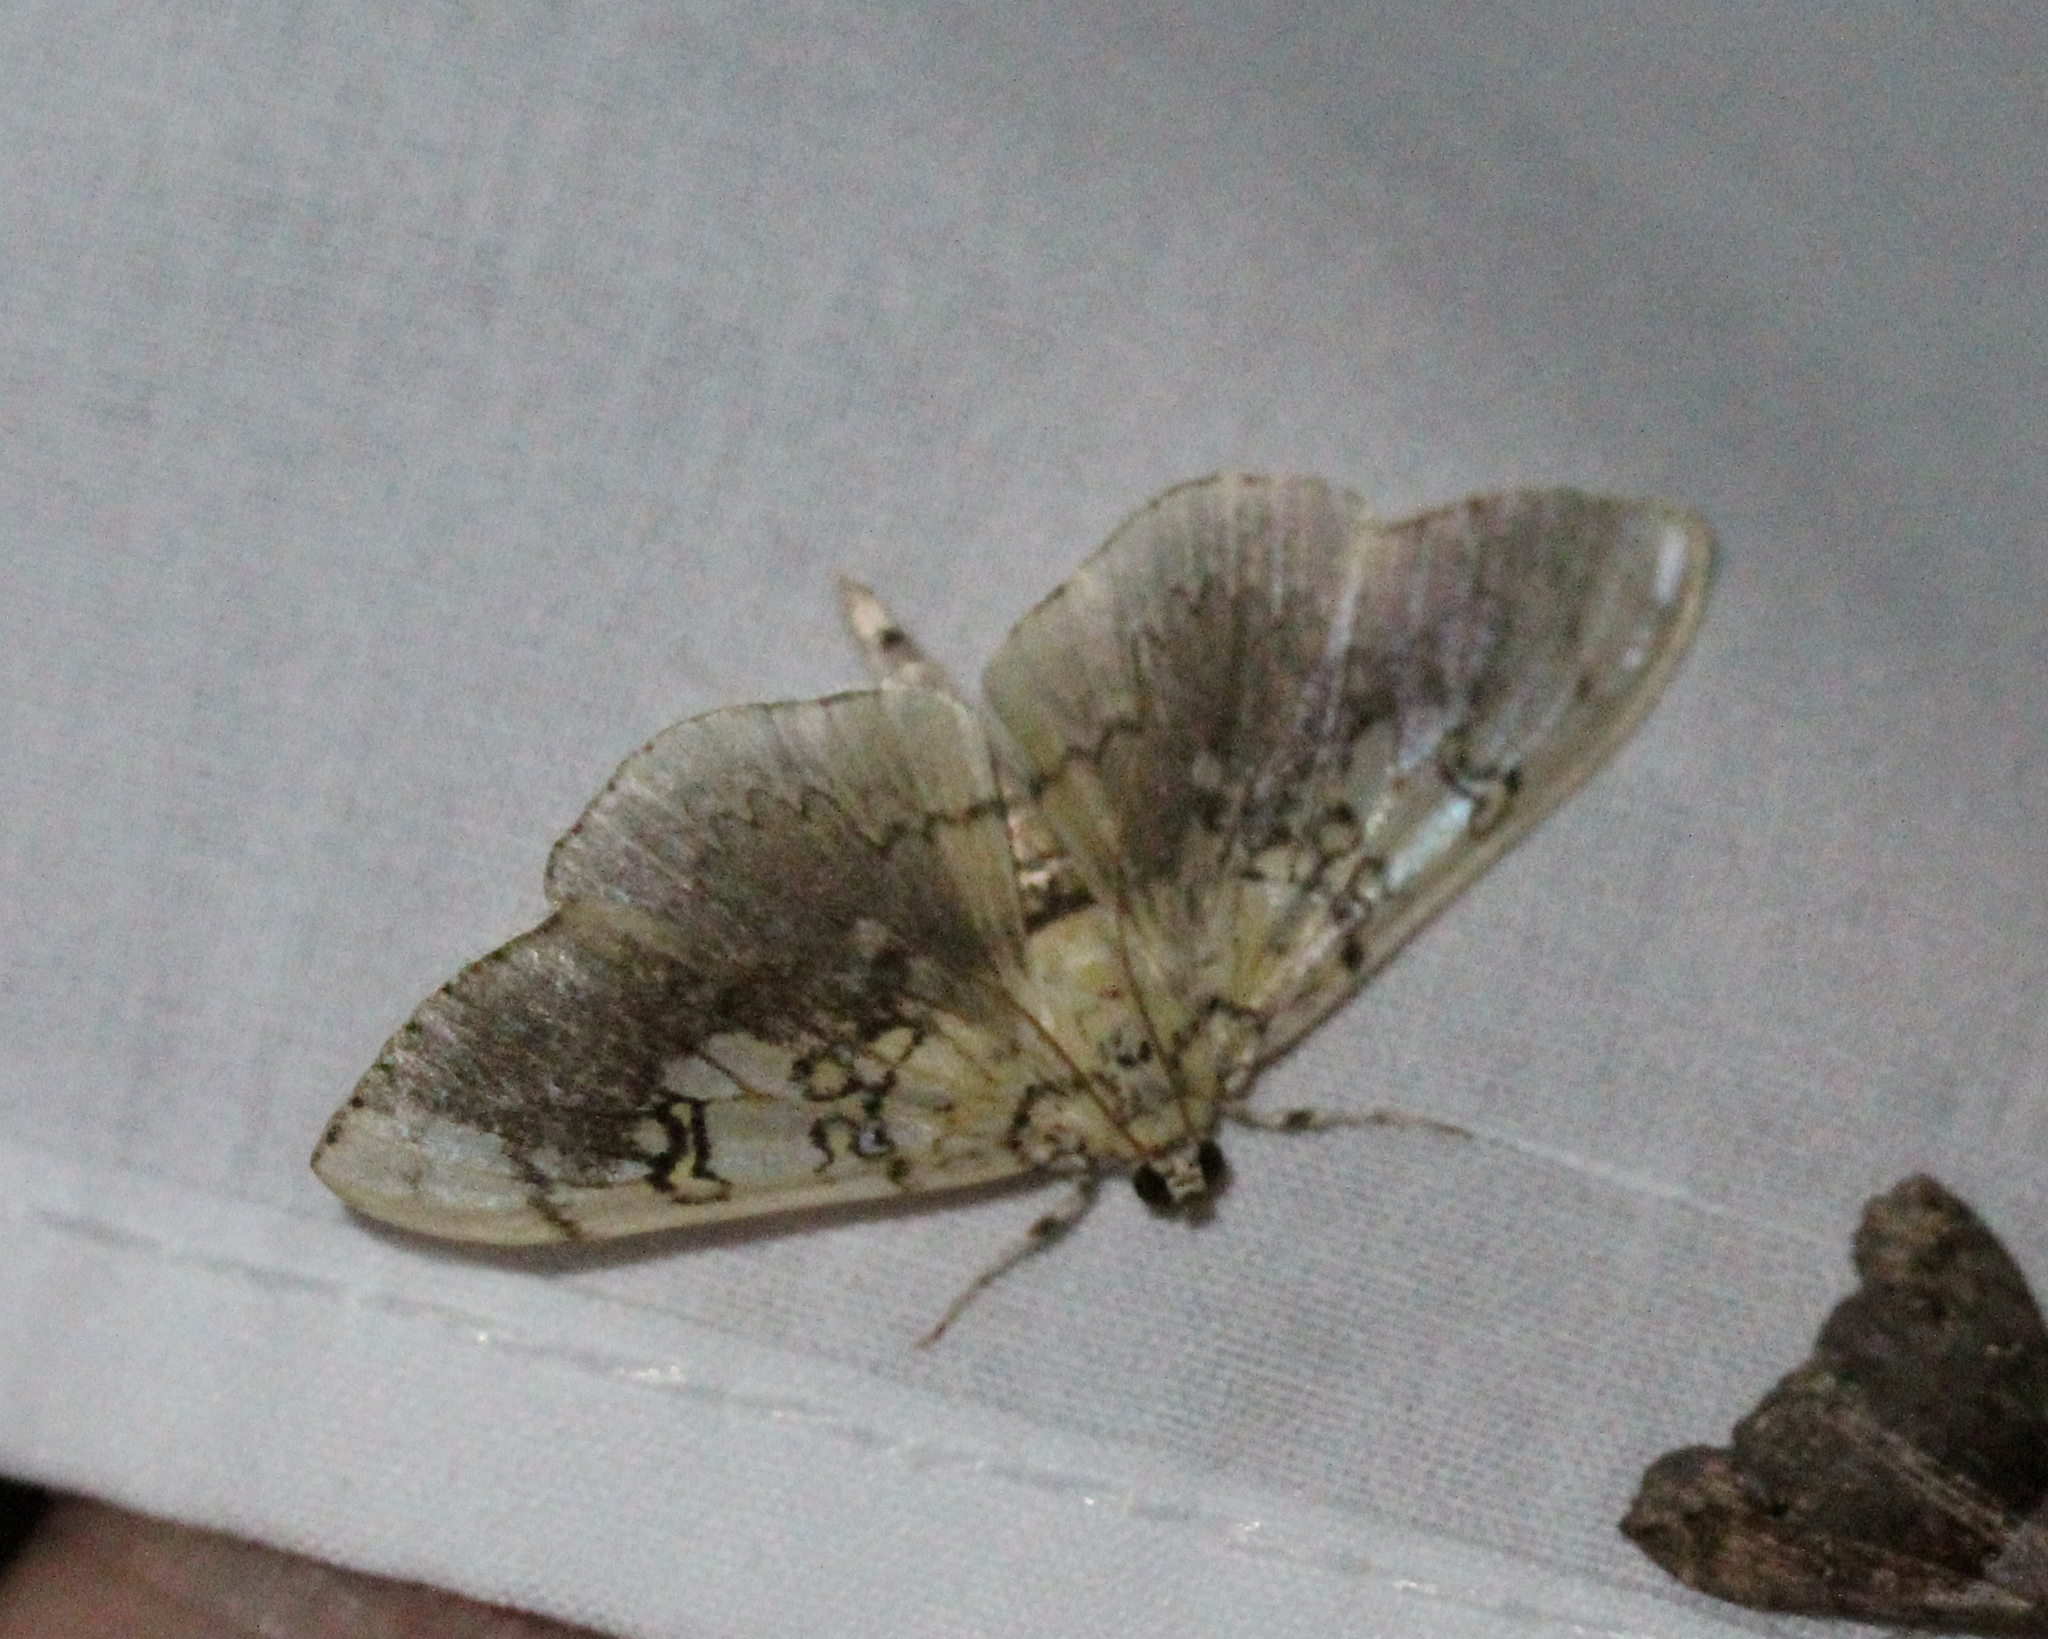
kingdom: Animalia
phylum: Arthropoda
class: Insecta
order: Lepidoptera
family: Crambidae
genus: Pantographa
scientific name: Pantographa limata
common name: Basswood leafroller moth
